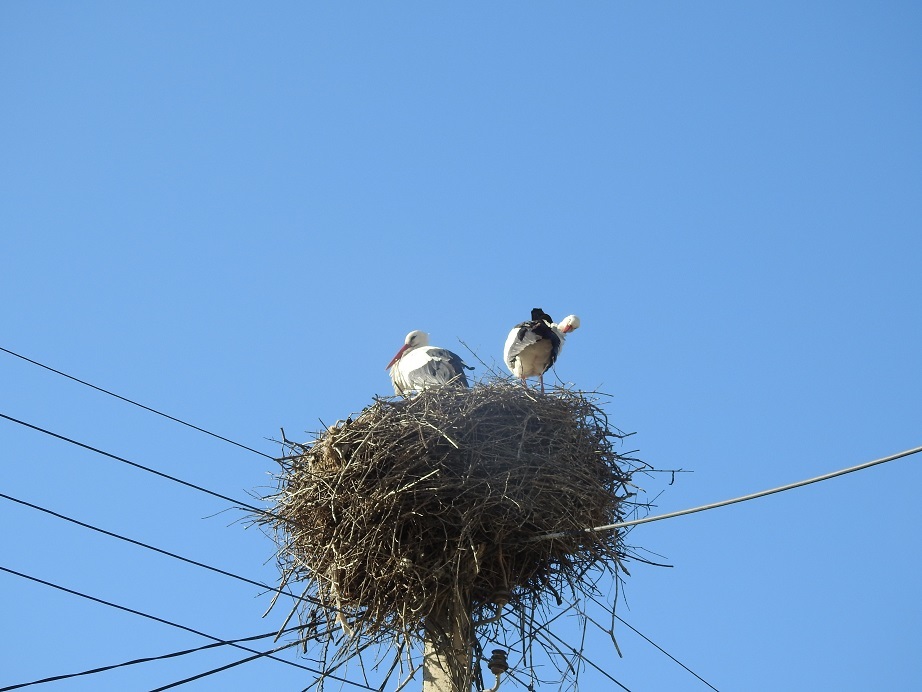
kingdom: Animalia
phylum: Chordata
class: Aves
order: Ciconiiformes
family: Ciconiidae
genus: Ciconia
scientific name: Ciconia ciconia
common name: White stork
